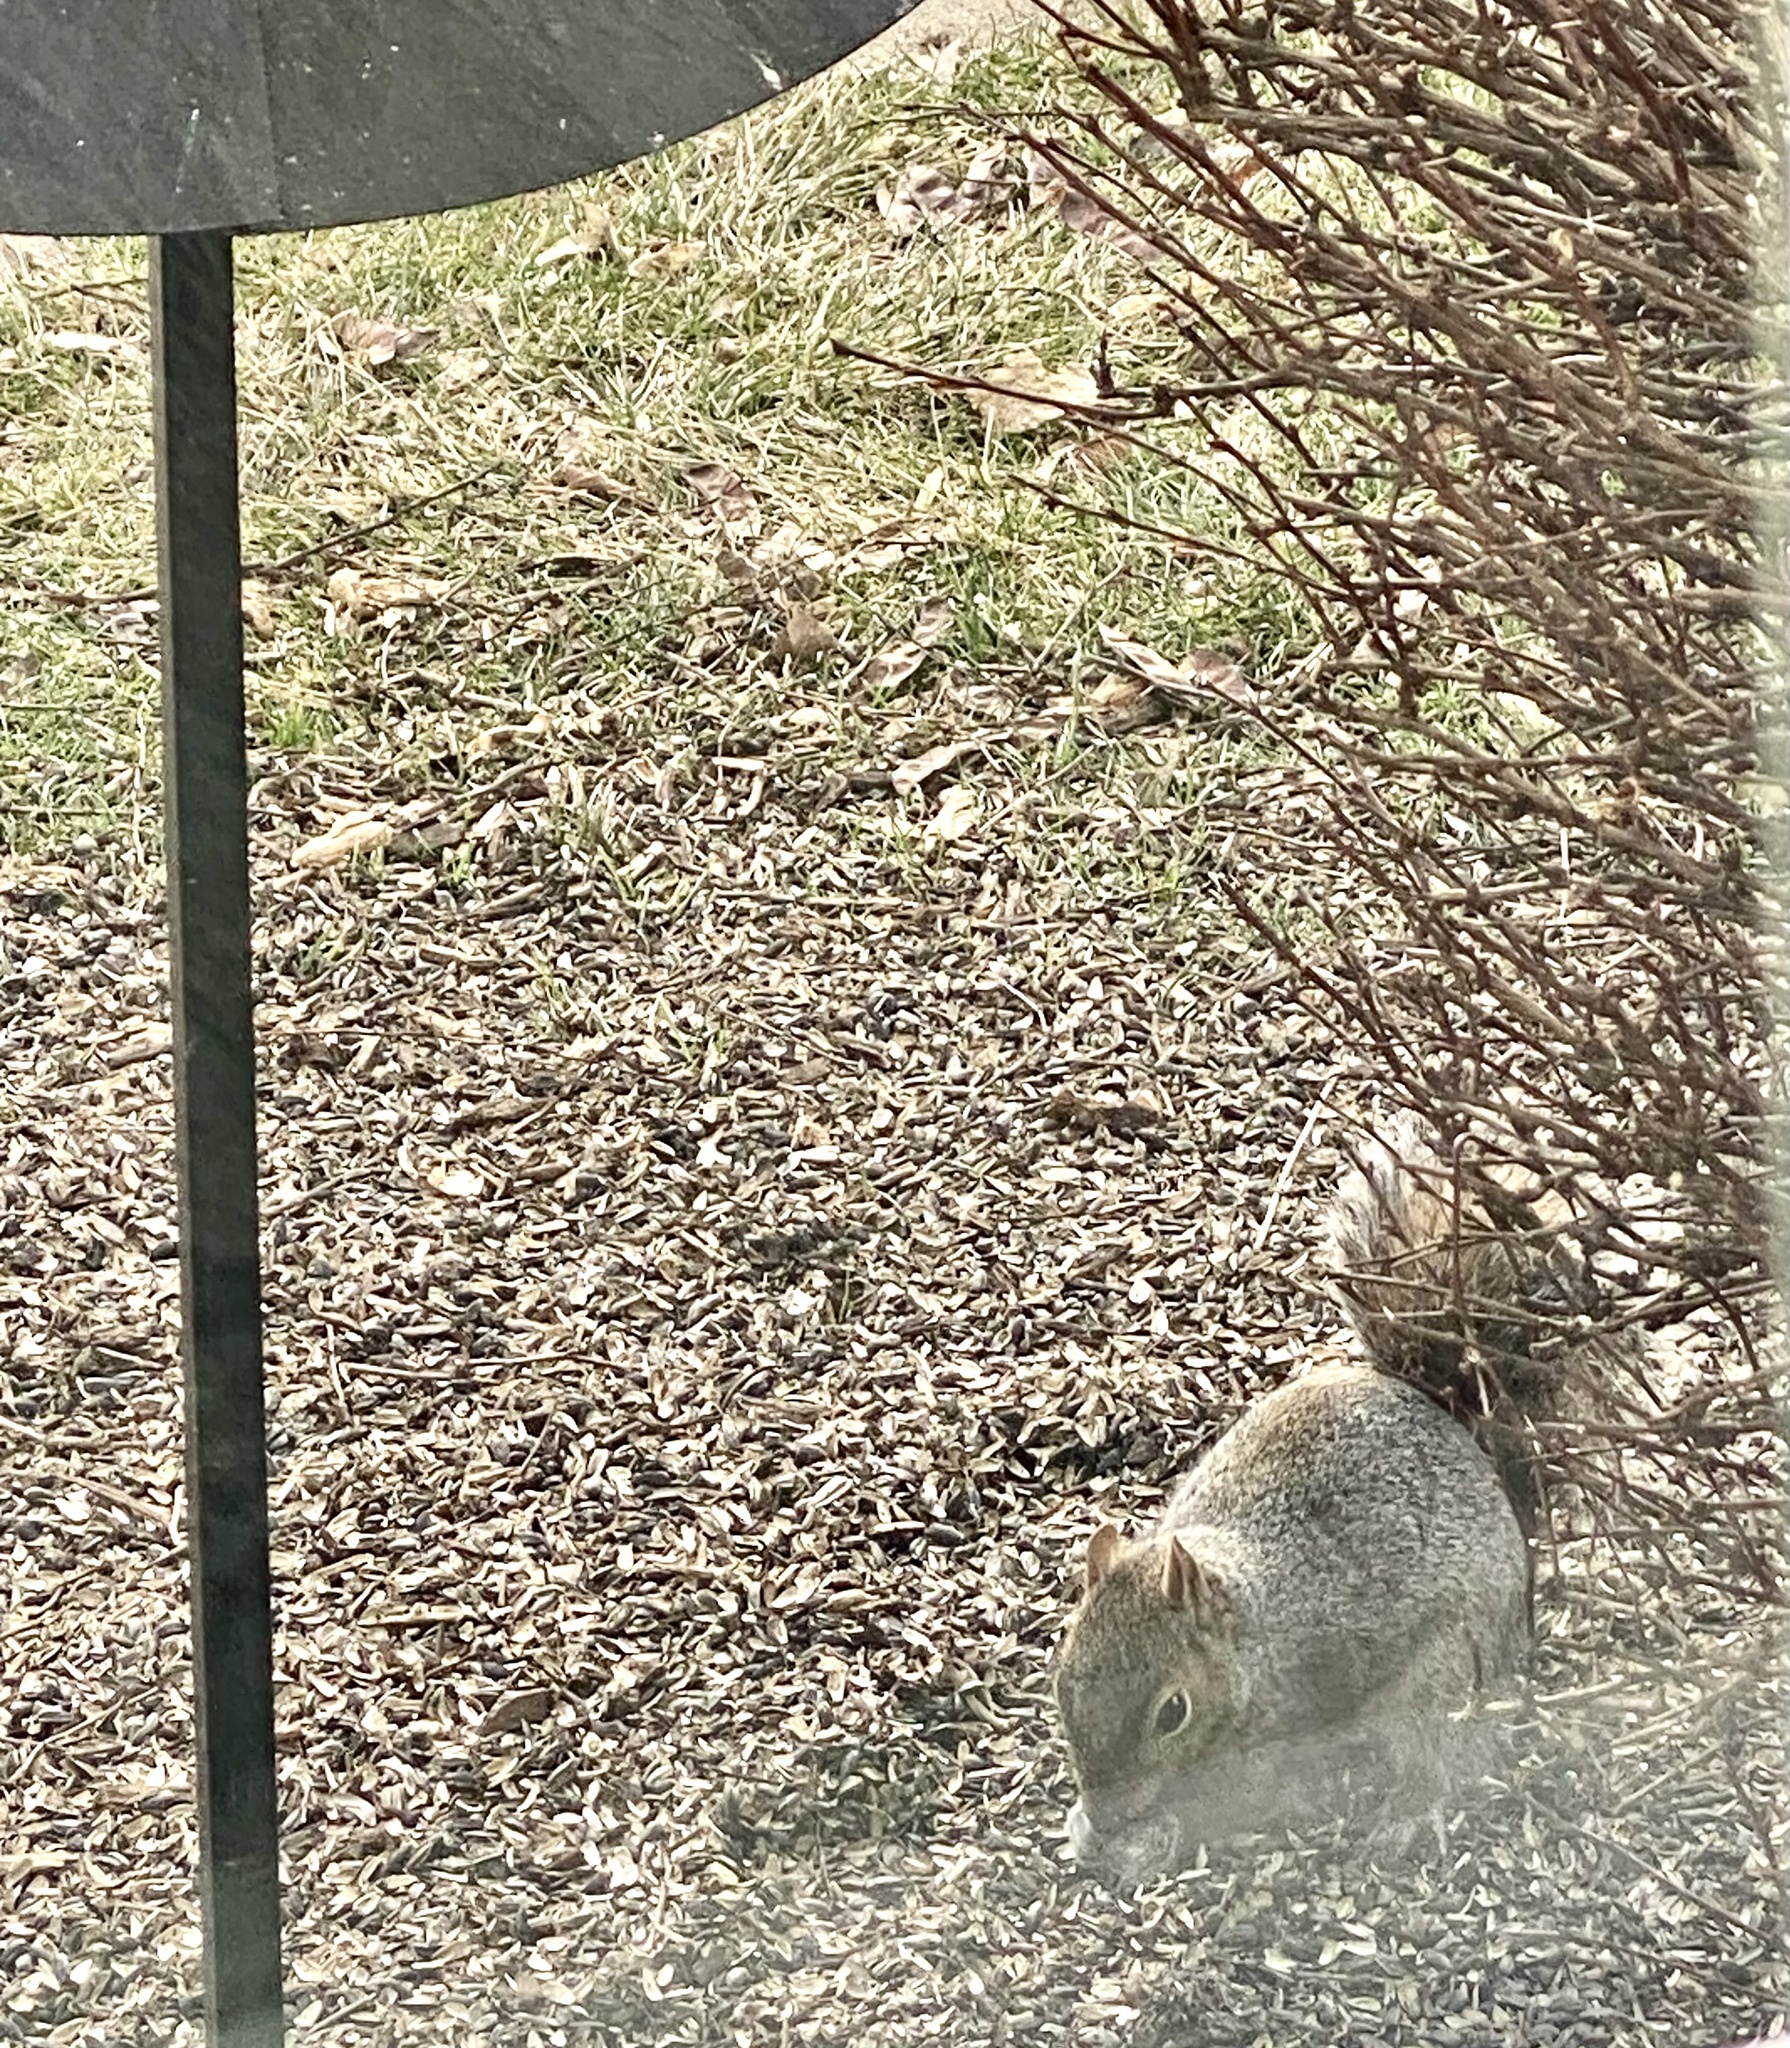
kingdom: Animalia
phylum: Chordata
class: Mammalia
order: Rodentia
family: Sciuridae
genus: Sciurus
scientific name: Sciurus carolinensis
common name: Eastern gray squirrel
